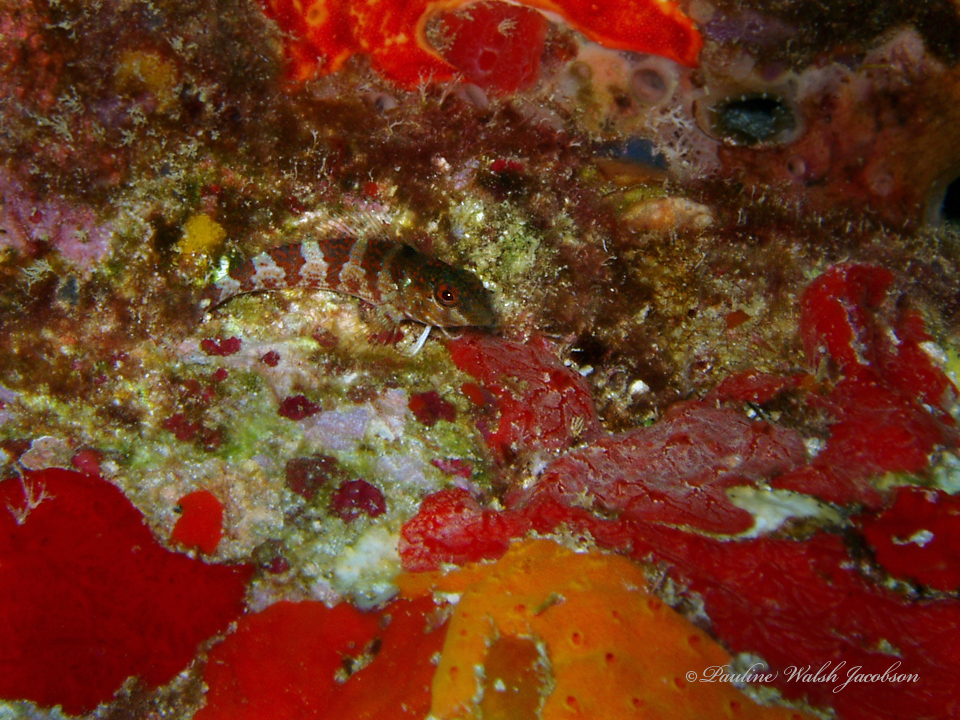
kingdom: Animalia
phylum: Chordata
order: Perciformes
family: Labrisomidae
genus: Malacoctenus
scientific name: Malacoctenus triangulatus
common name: Saddled blenny
